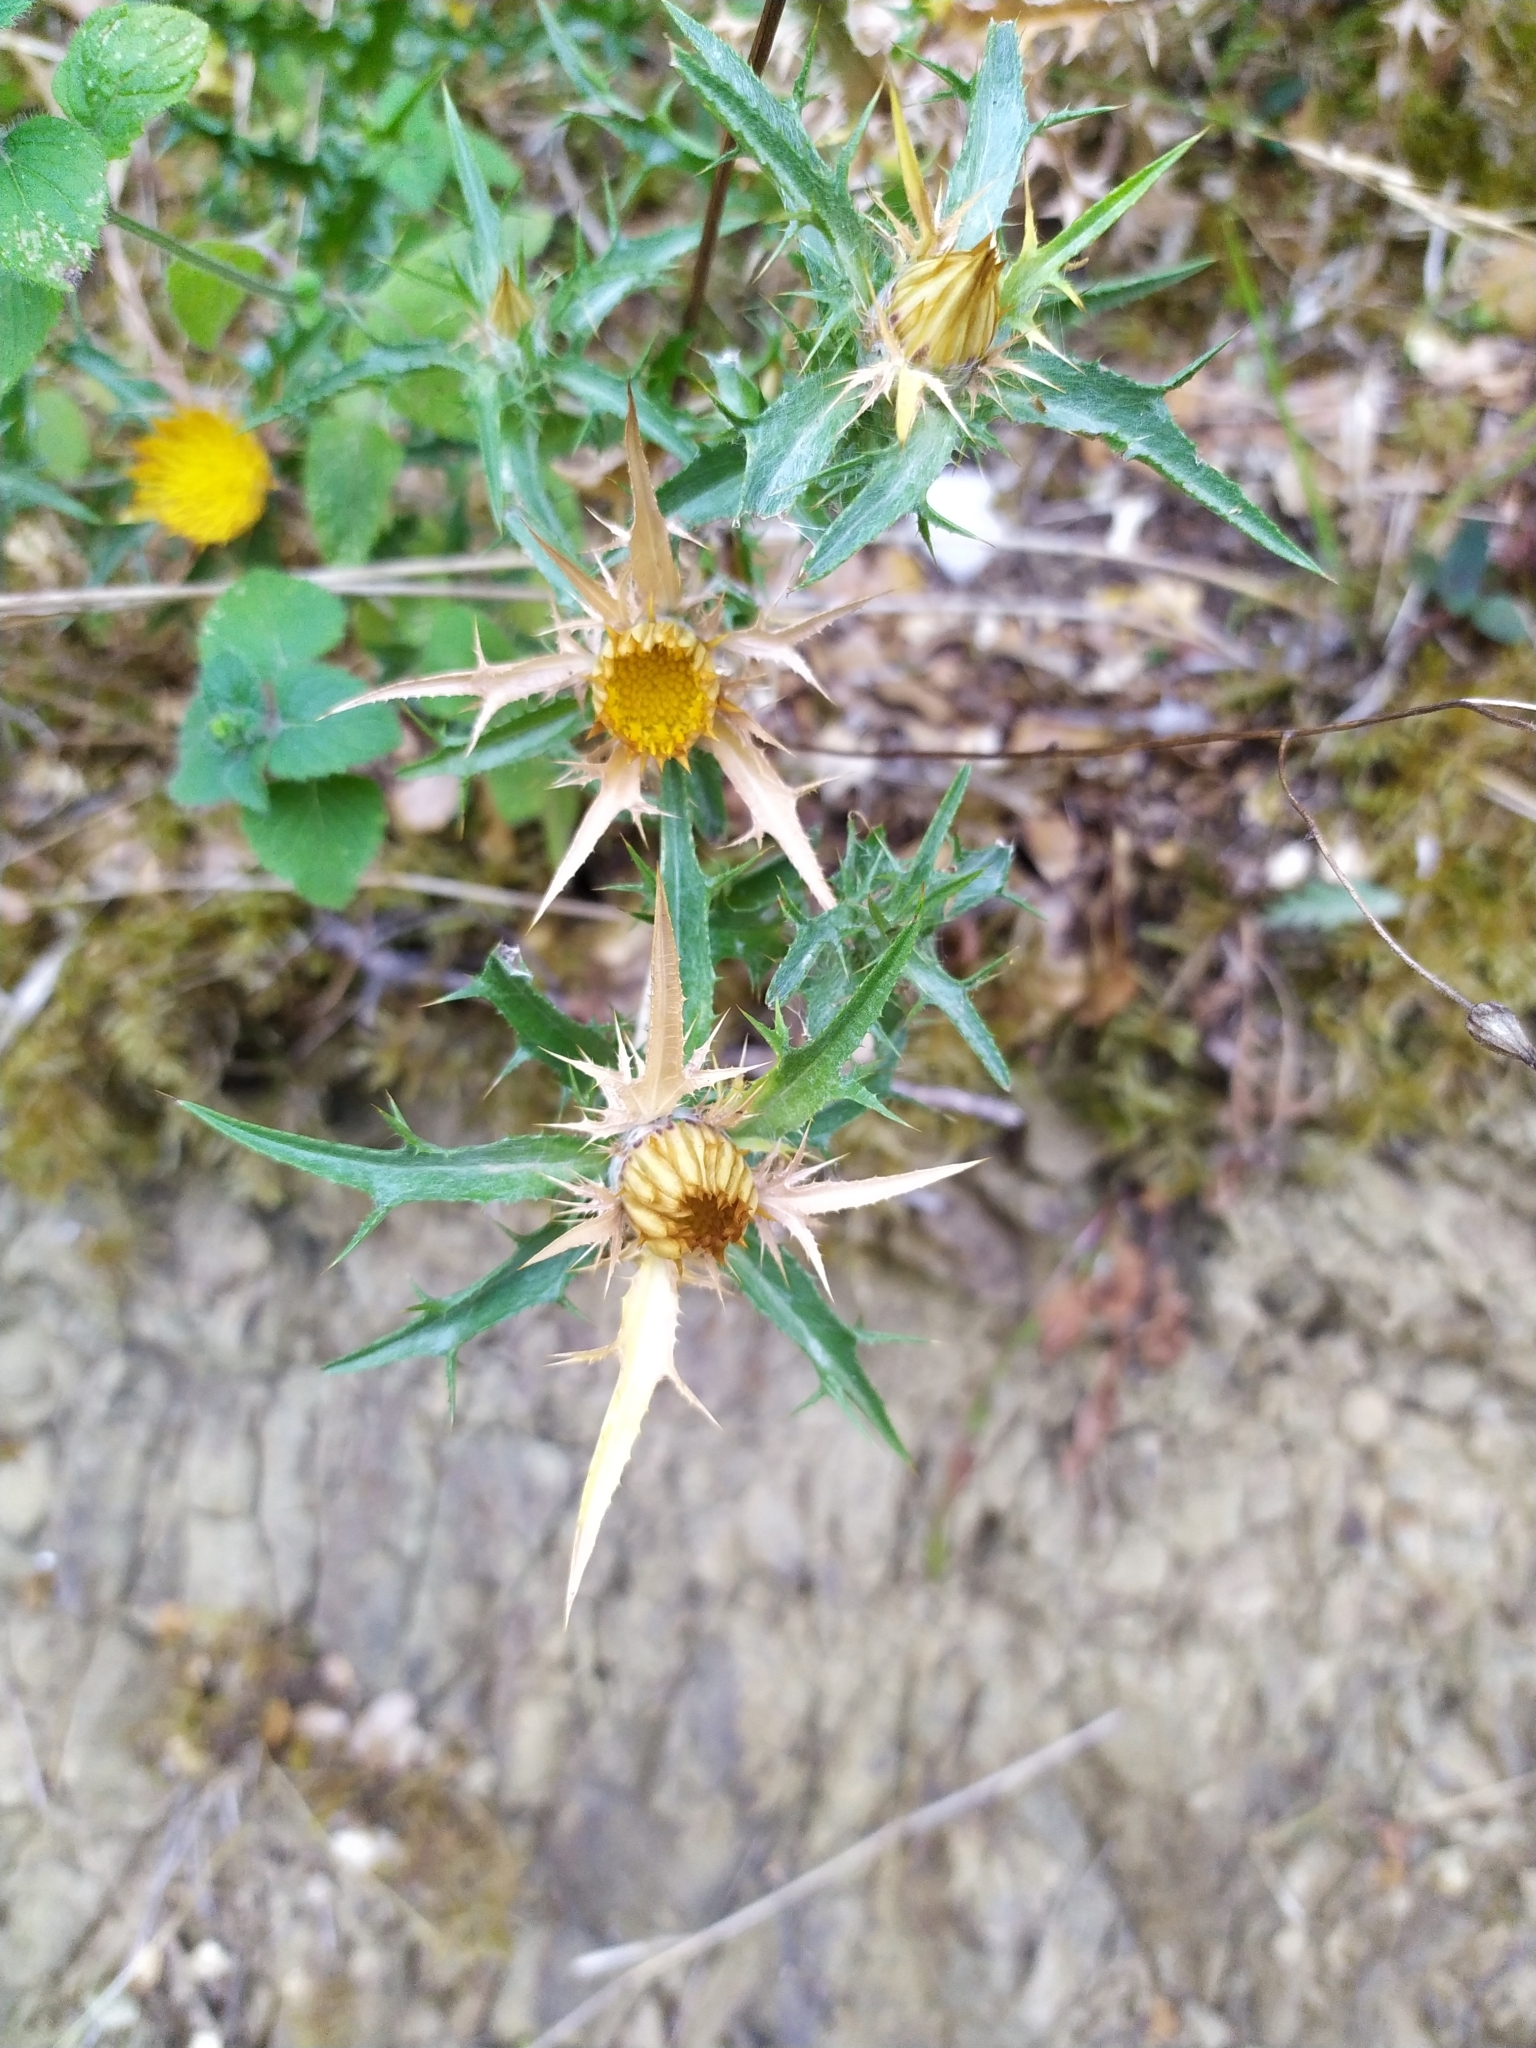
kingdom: Plantae
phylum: Tracheophyta
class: Magnoliopsida
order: Asterales
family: Asteraceae
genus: Carlina
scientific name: Carlina corymbosa
